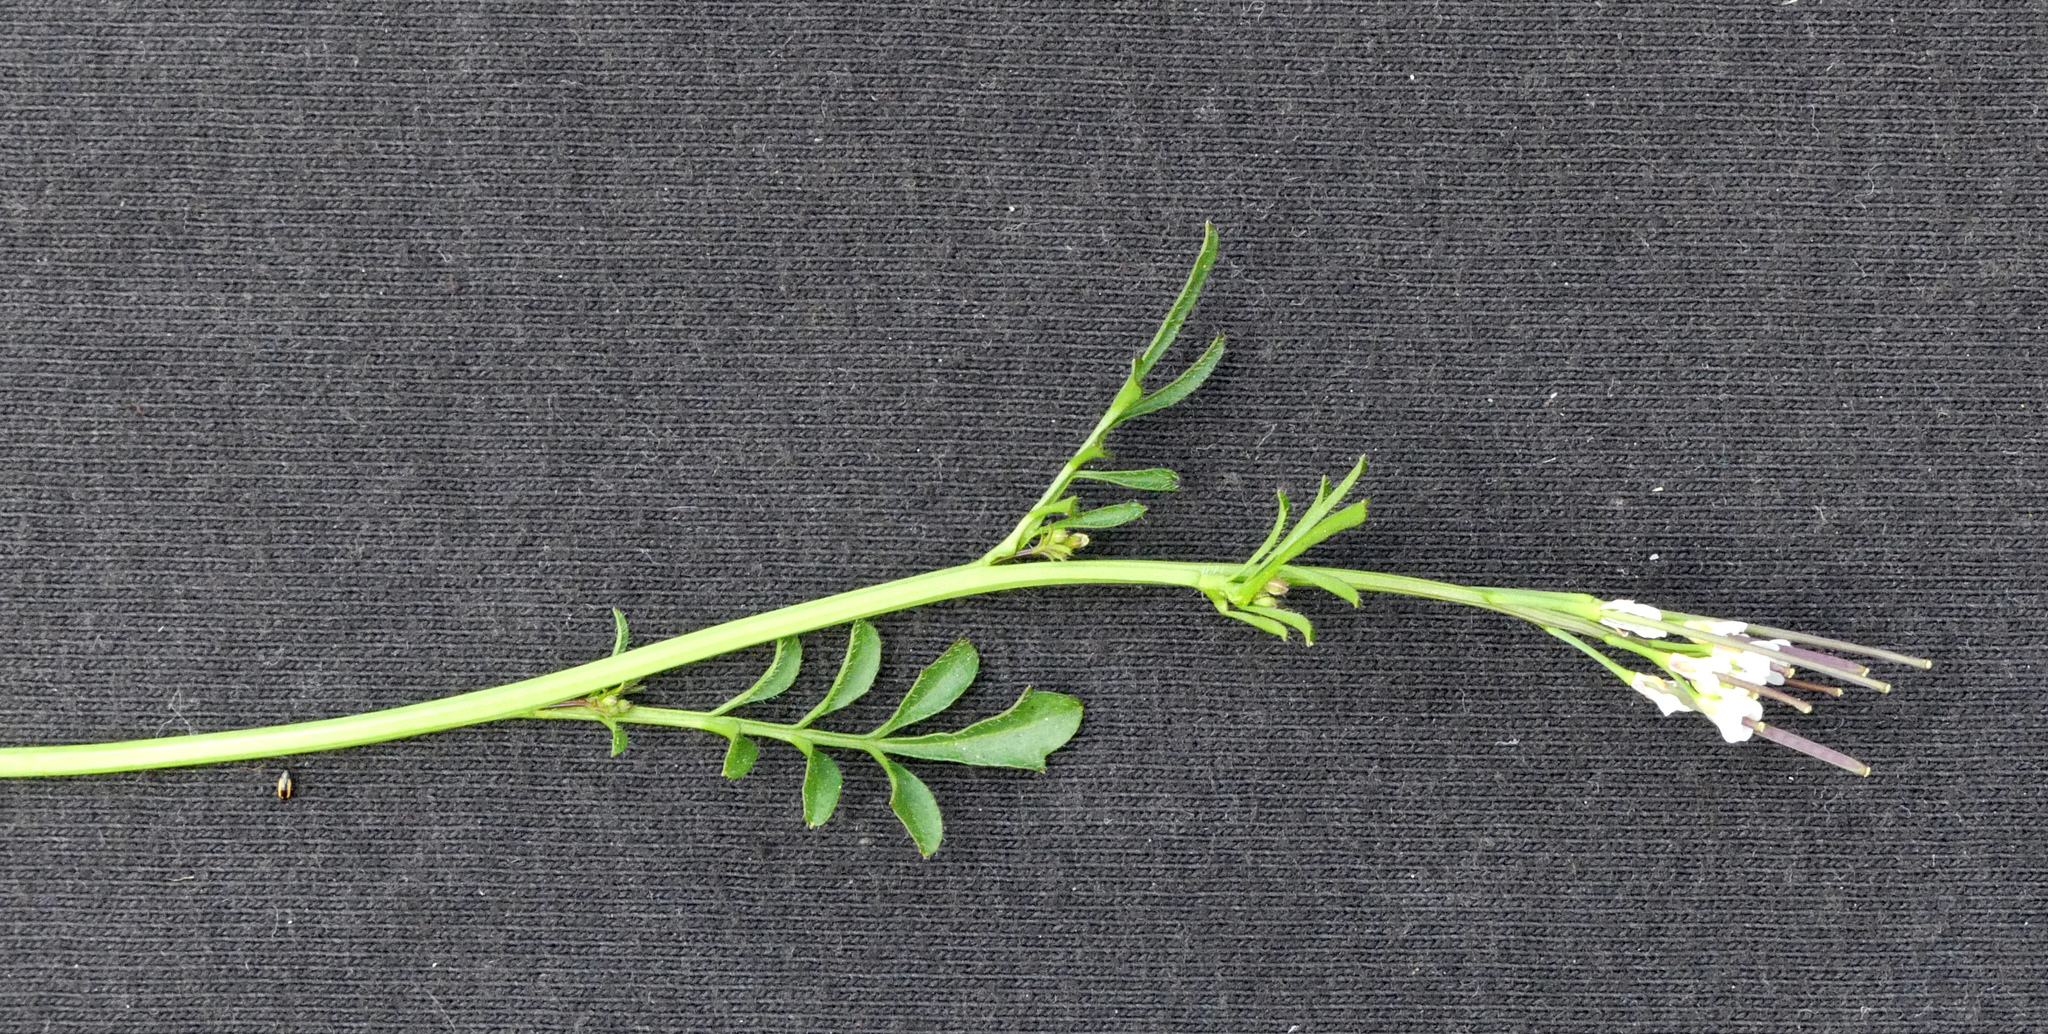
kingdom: Plantae
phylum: Tracheophyta
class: Magnoliopsida
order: Brassicales
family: Brassicaceae
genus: Cardamine
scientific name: Cardamine hirsuta
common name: Hairy bittercress
